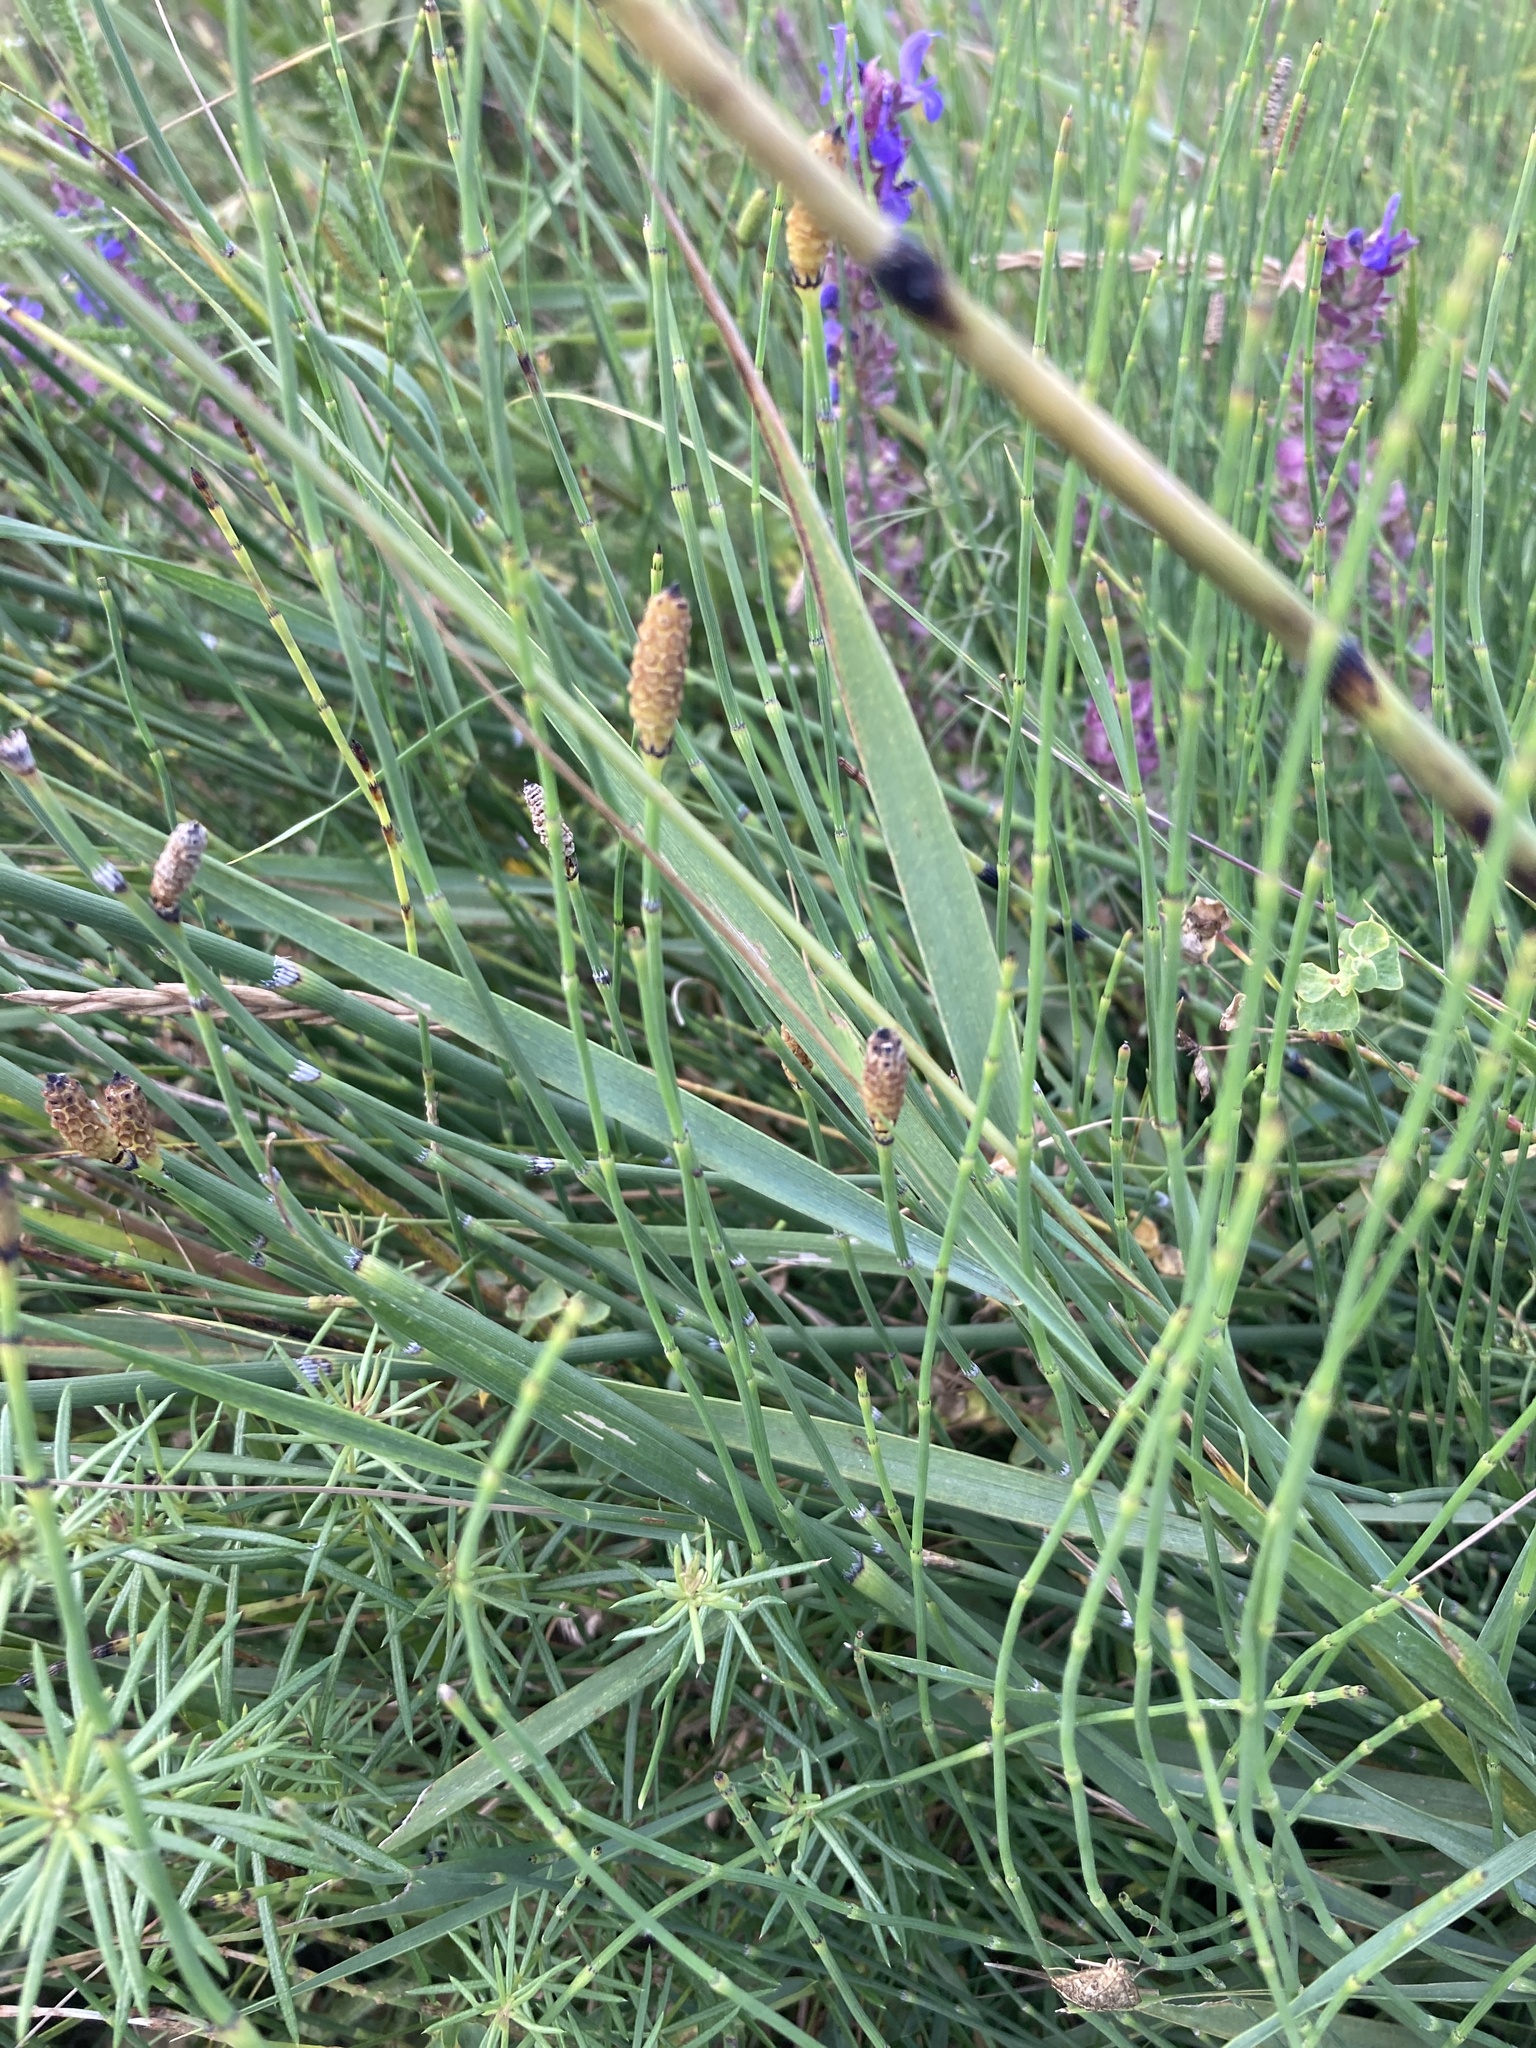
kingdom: Plantae
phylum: Tracheophyta
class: Polypodiopsida
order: Equisetales
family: Equisetaceae
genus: Equisetum
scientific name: Equisetum ramosissimum
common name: Branched horsetail
